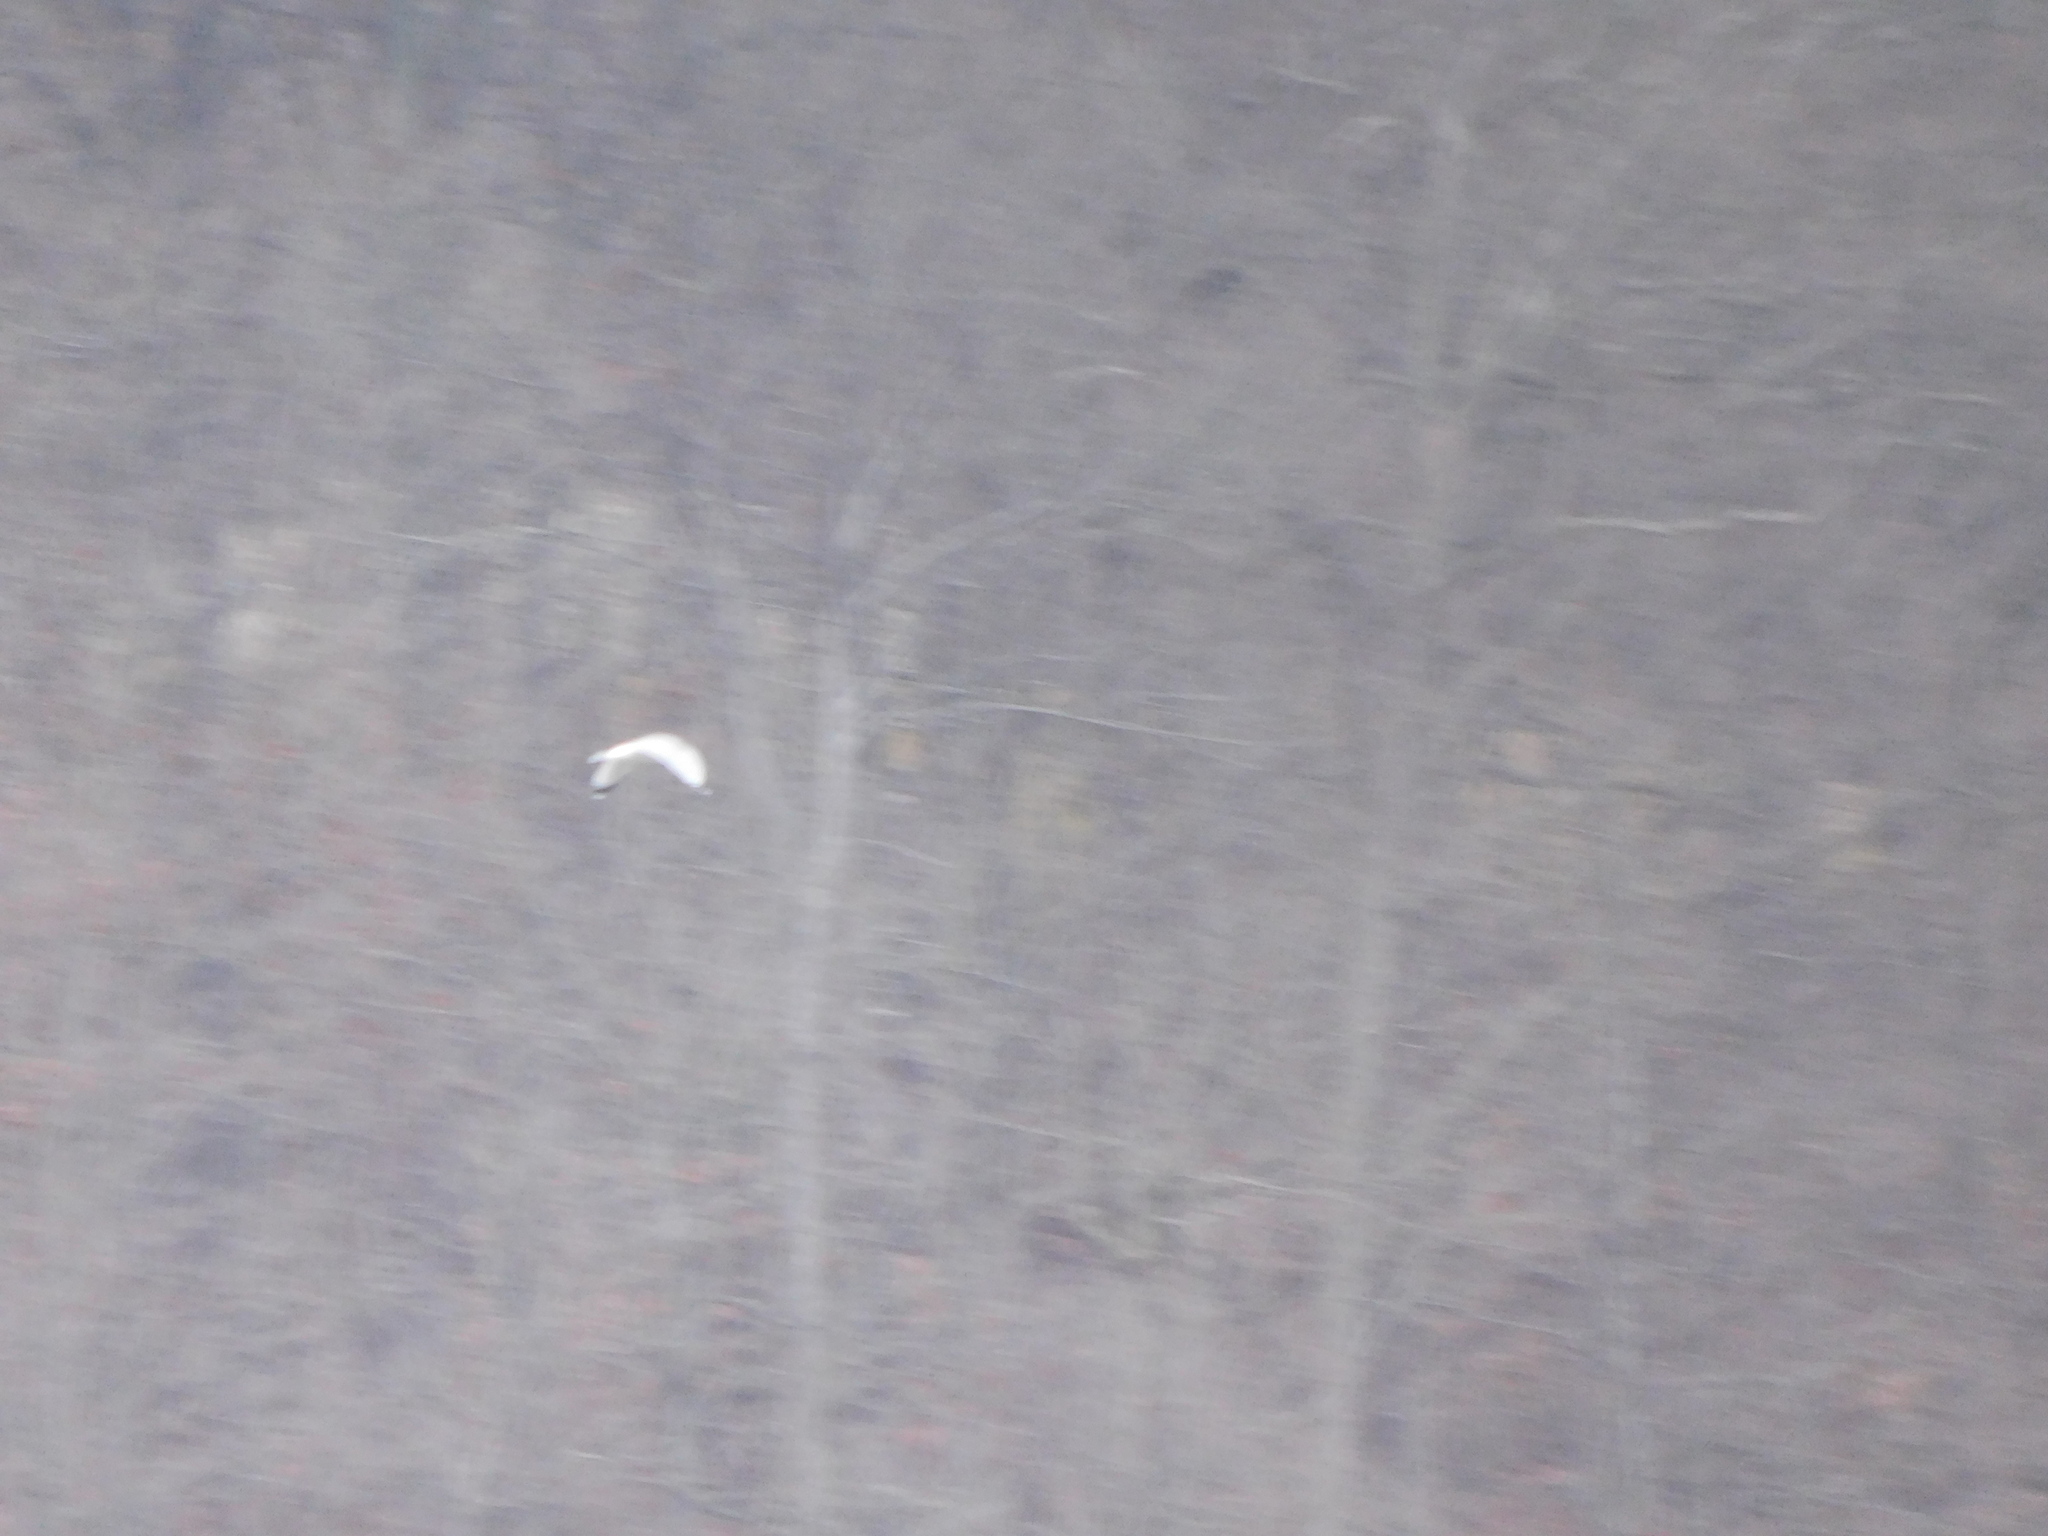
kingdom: Animalia
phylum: Chordata
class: Aves
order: Charadriiformes
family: Laridae
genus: Larus
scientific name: Larus delawarensis
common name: Ring-billed gull
